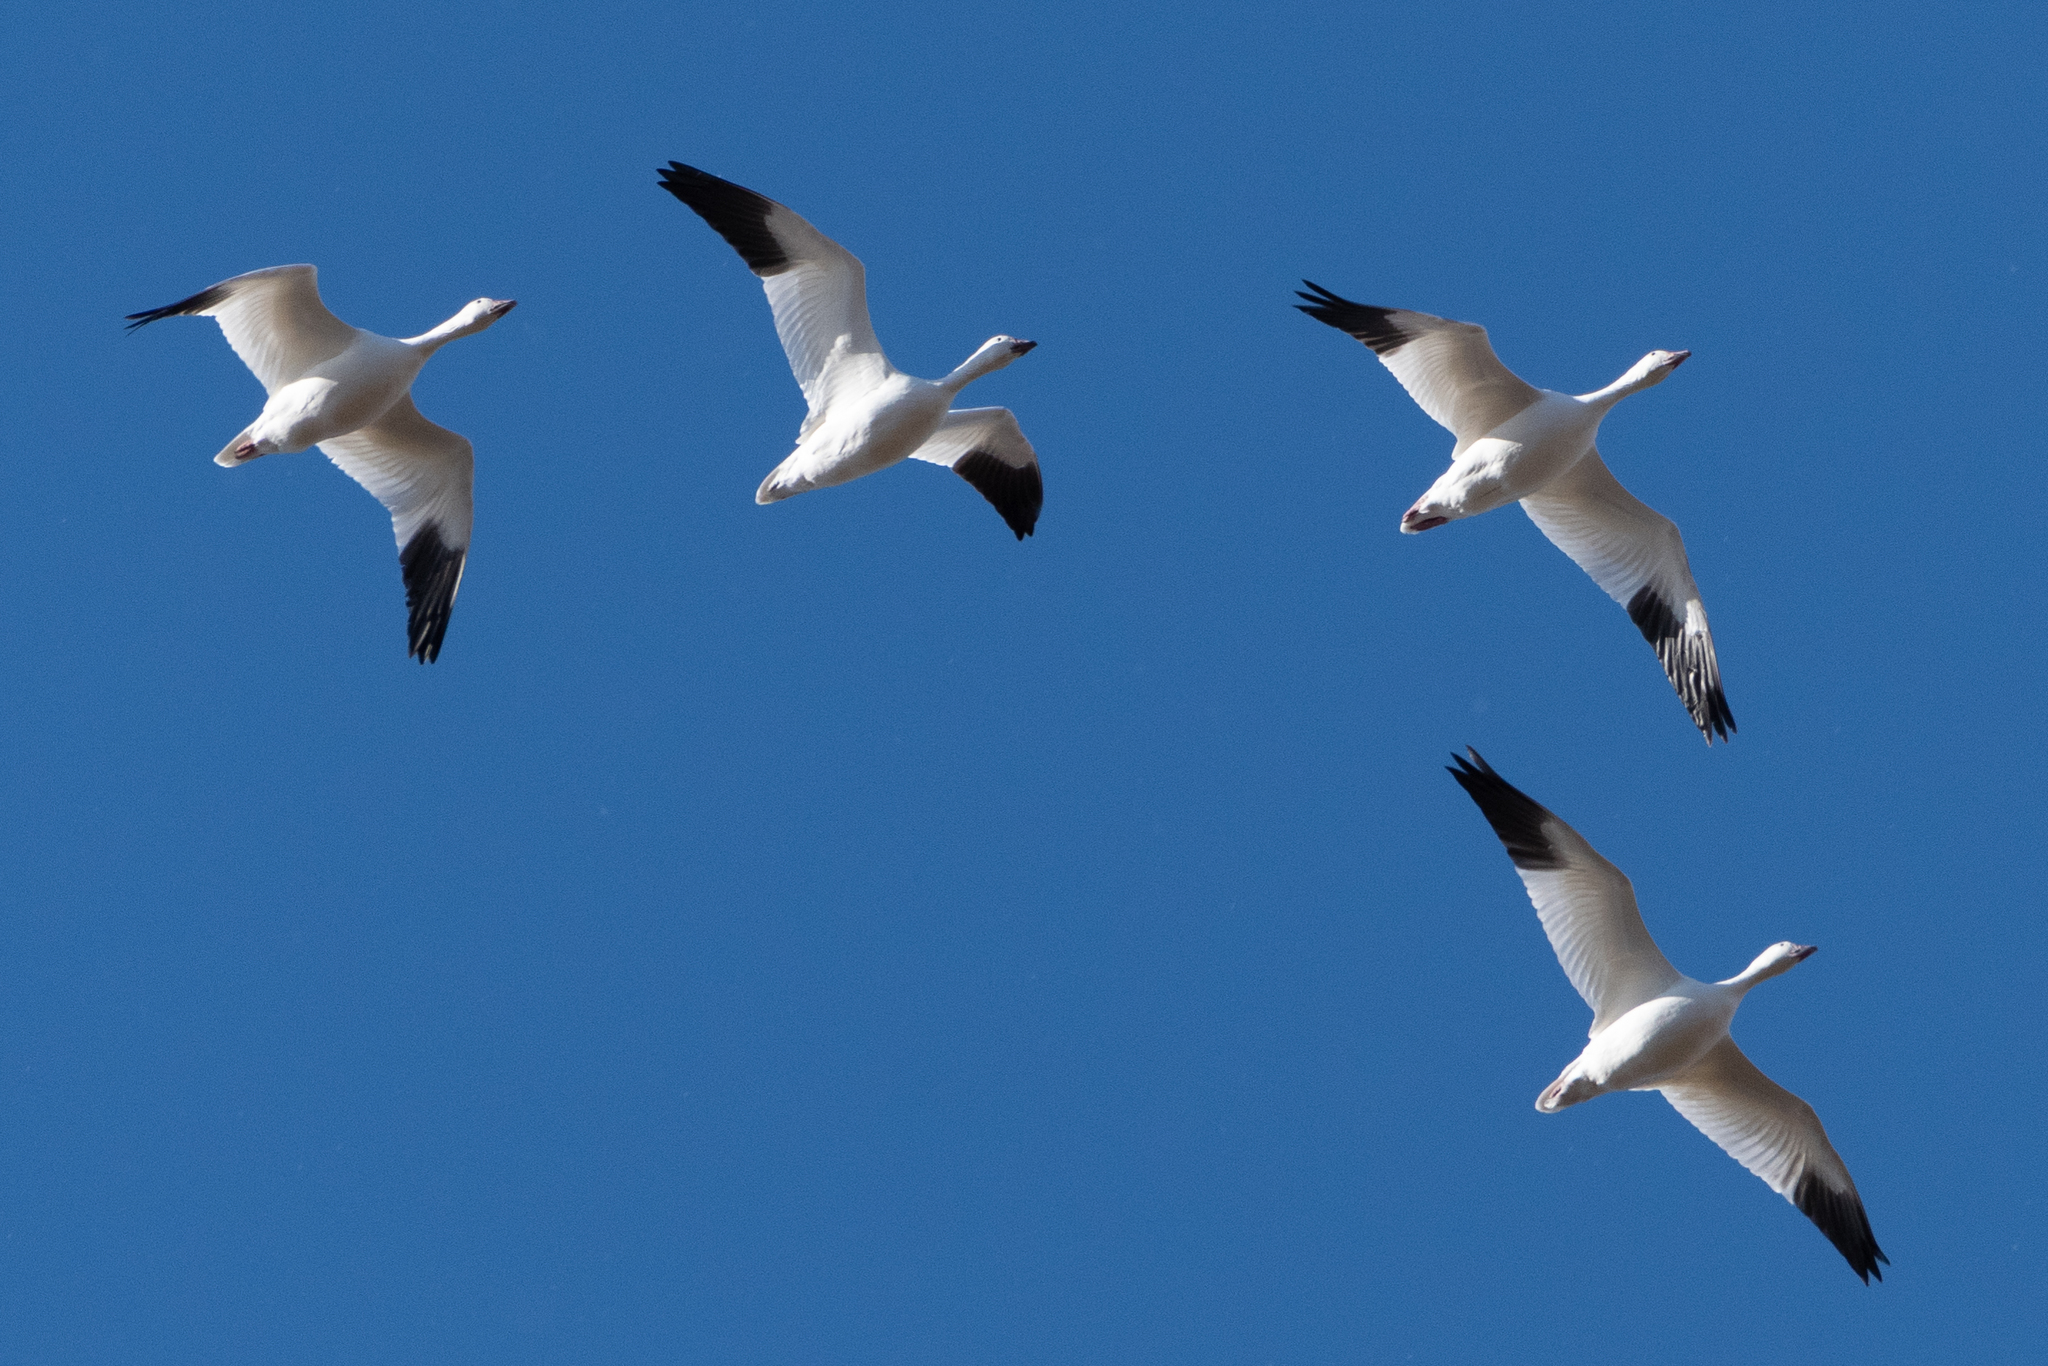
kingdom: Animalia
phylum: Chordata
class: Aves
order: Anseriformes
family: Anatidae
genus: Anser
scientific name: Anser caerulescens
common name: Snow goose
